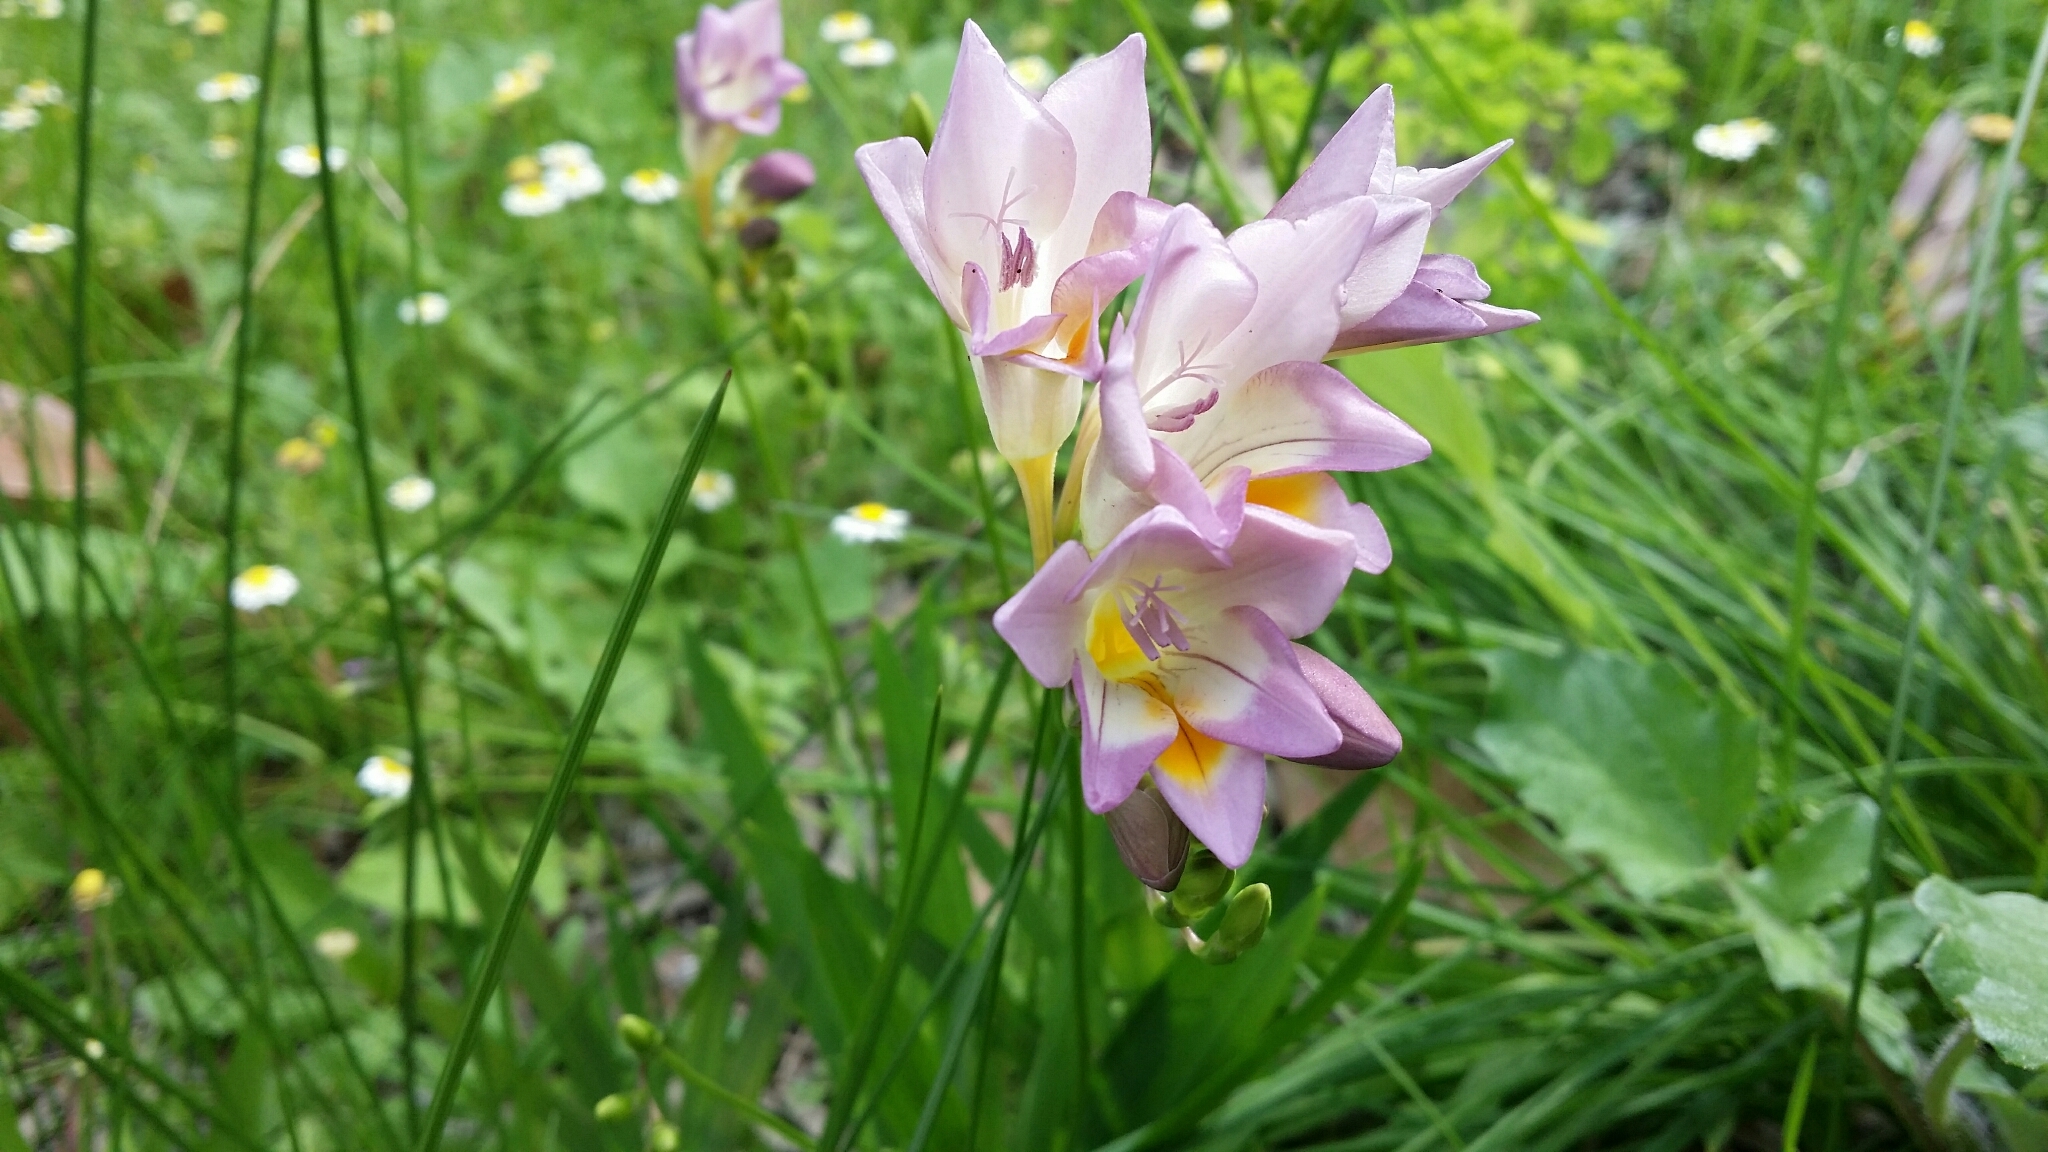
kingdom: Plantae
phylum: Tracheophyta
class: Liliopsida
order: Asparagales
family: Iridaceae
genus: Freesia
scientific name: Freesia
